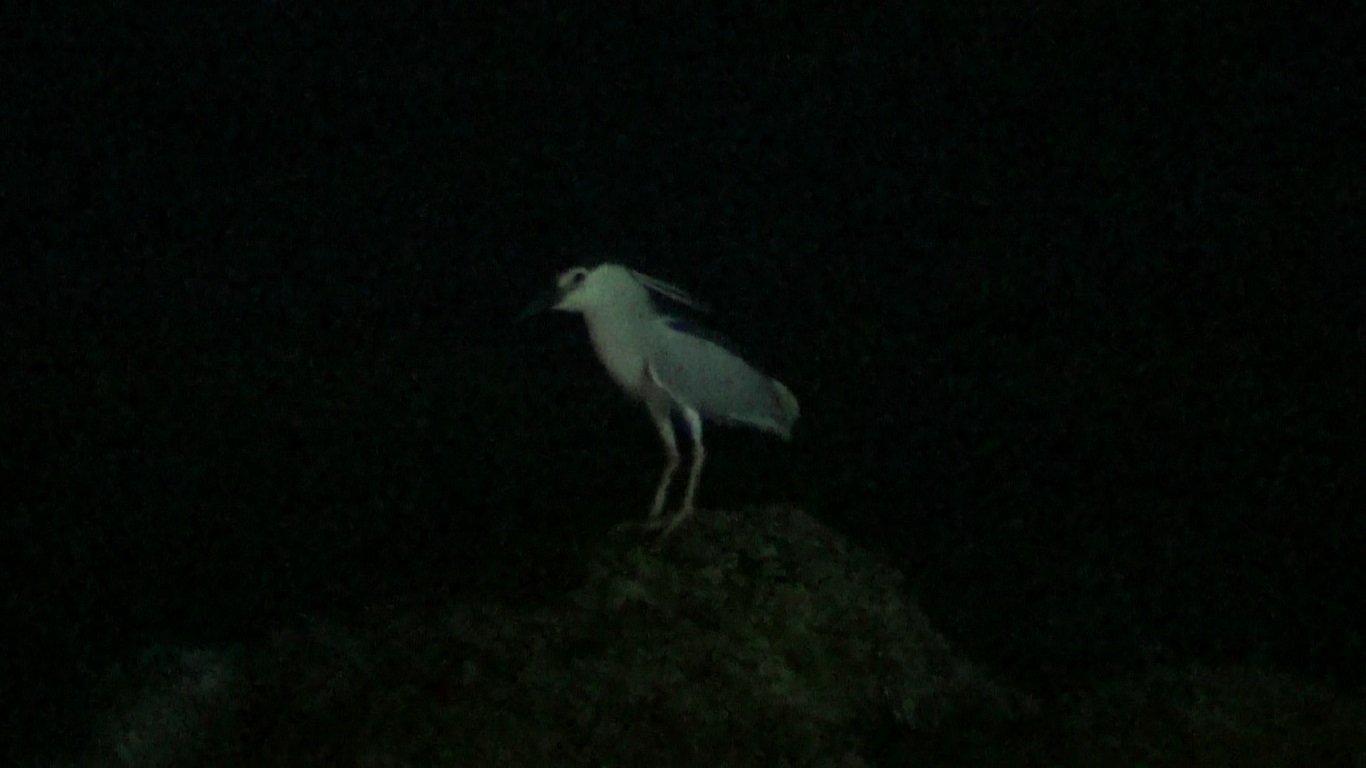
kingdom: Animalia
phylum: Chordata
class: Aves
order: Pelecaniformes
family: Ardeidae
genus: Nycticorax
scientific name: Nycticorax nycticorax
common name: Black-crowned night heron
